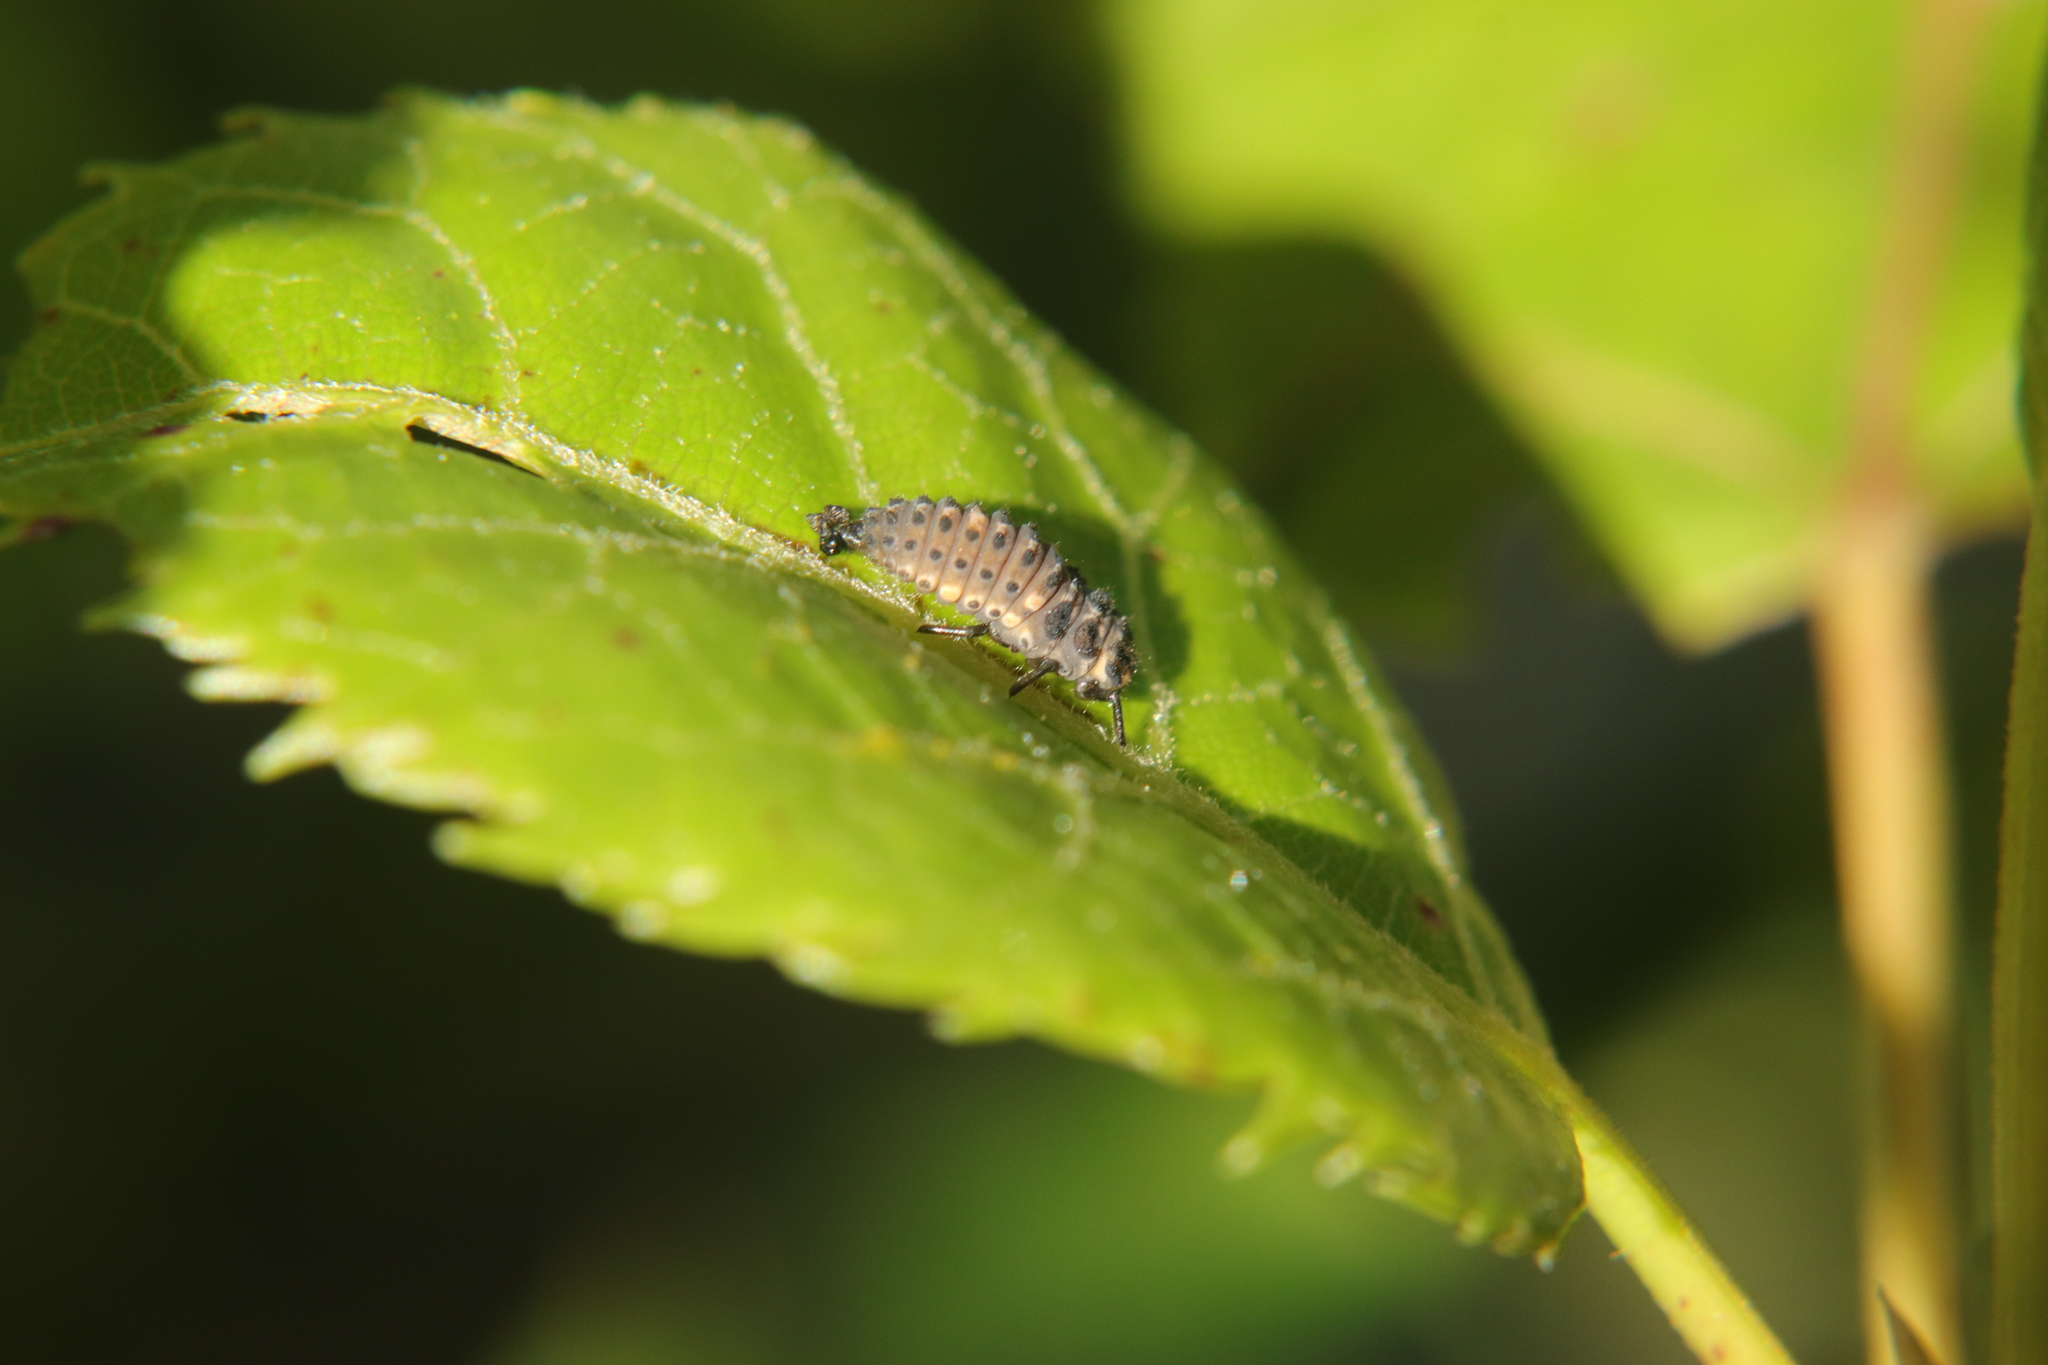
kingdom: Animalia
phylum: Arthropoda
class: Insecta
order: Coleoptera
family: Coccinellidae
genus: Adalia
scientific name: Adalia bipunctata
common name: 2-spot ladybird
